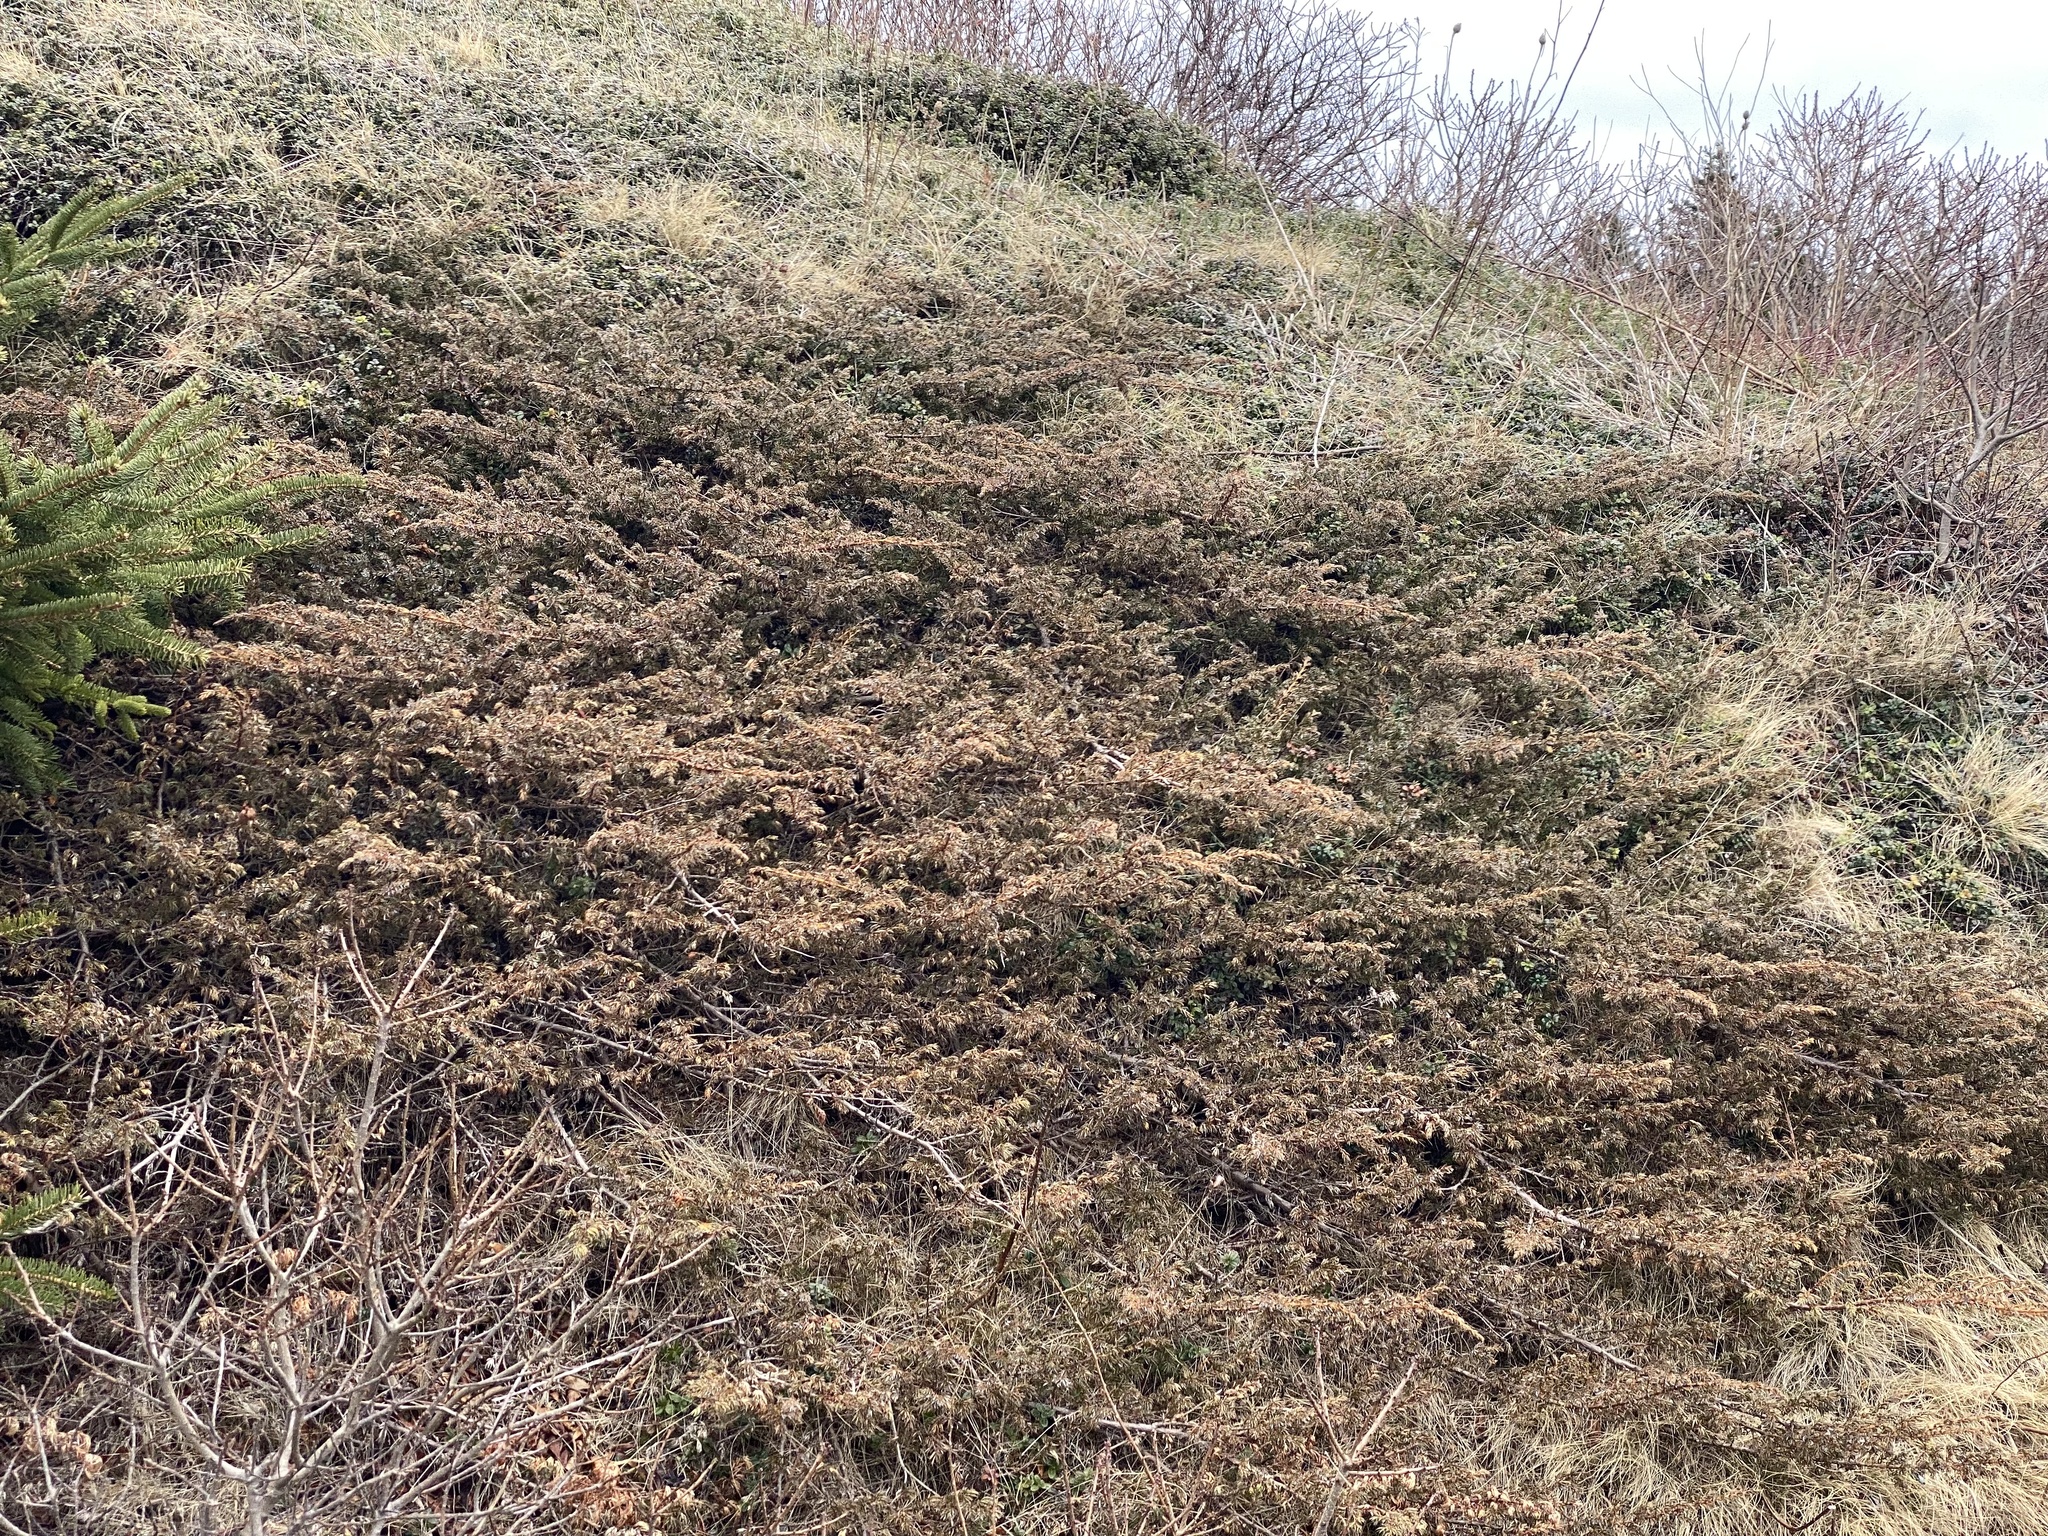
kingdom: Plantae
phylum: Tracheophyta
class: Pinopsida
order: Pinales
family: Cupressaceae
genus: Juniperus
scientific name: Juniperus communis
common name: Common juniper
